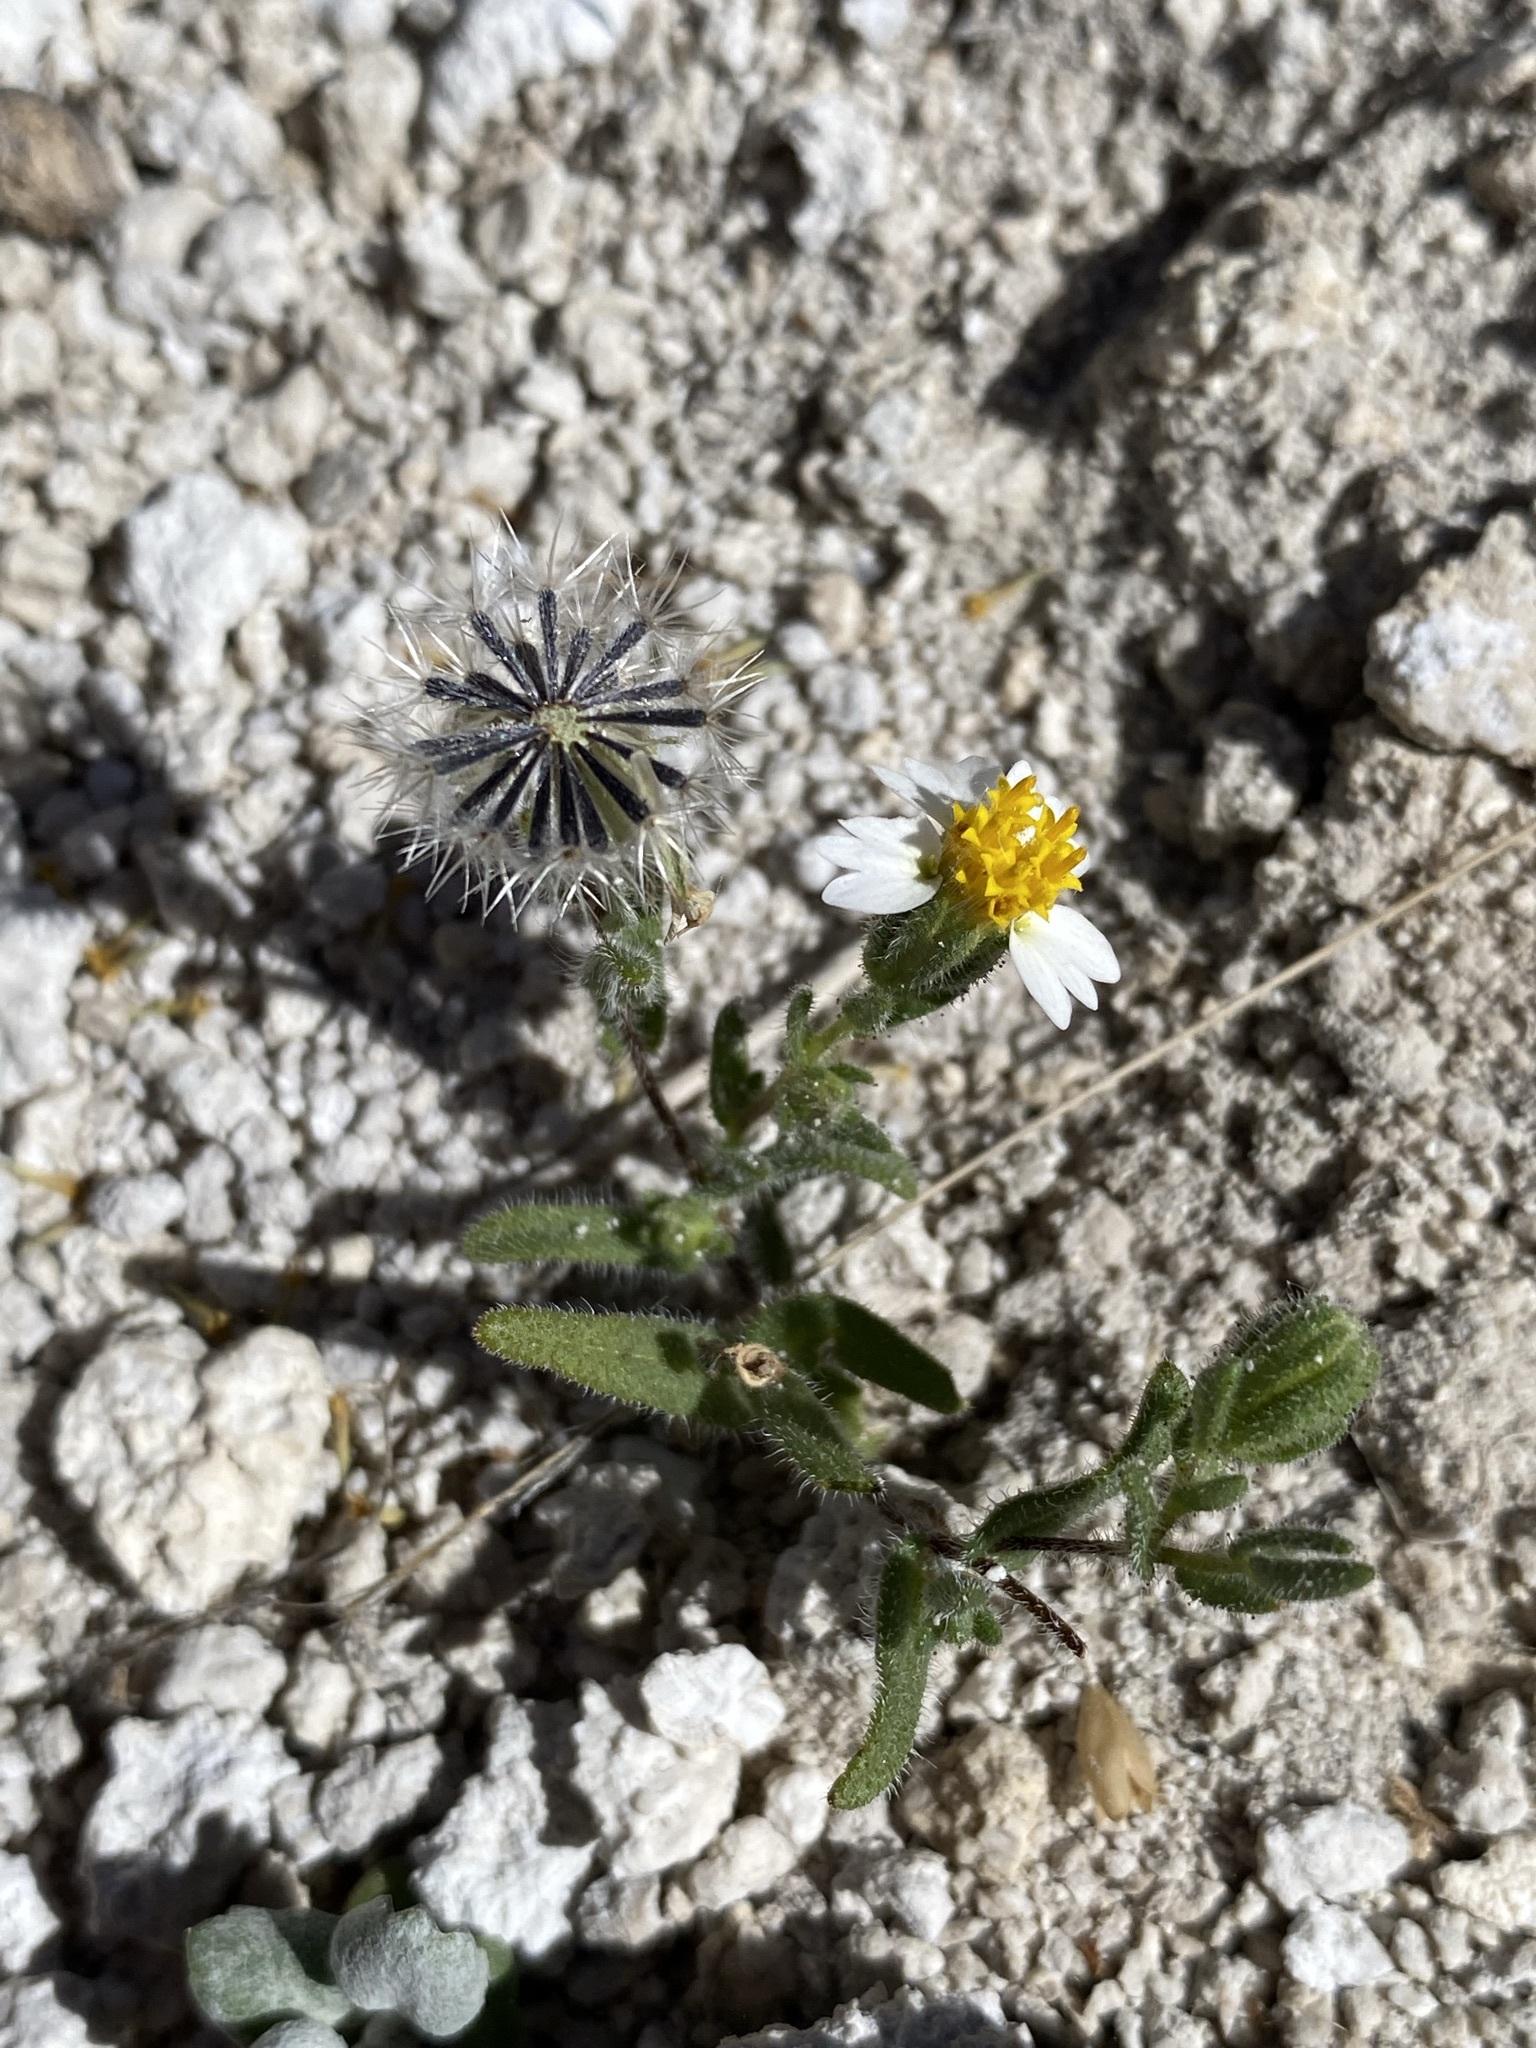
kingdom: Plantae
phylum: Tracheophyta
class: Magnoliopsida
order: Asterales
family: Asteraceae
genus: Layia
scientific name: Layia glandulosa
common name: White layia
